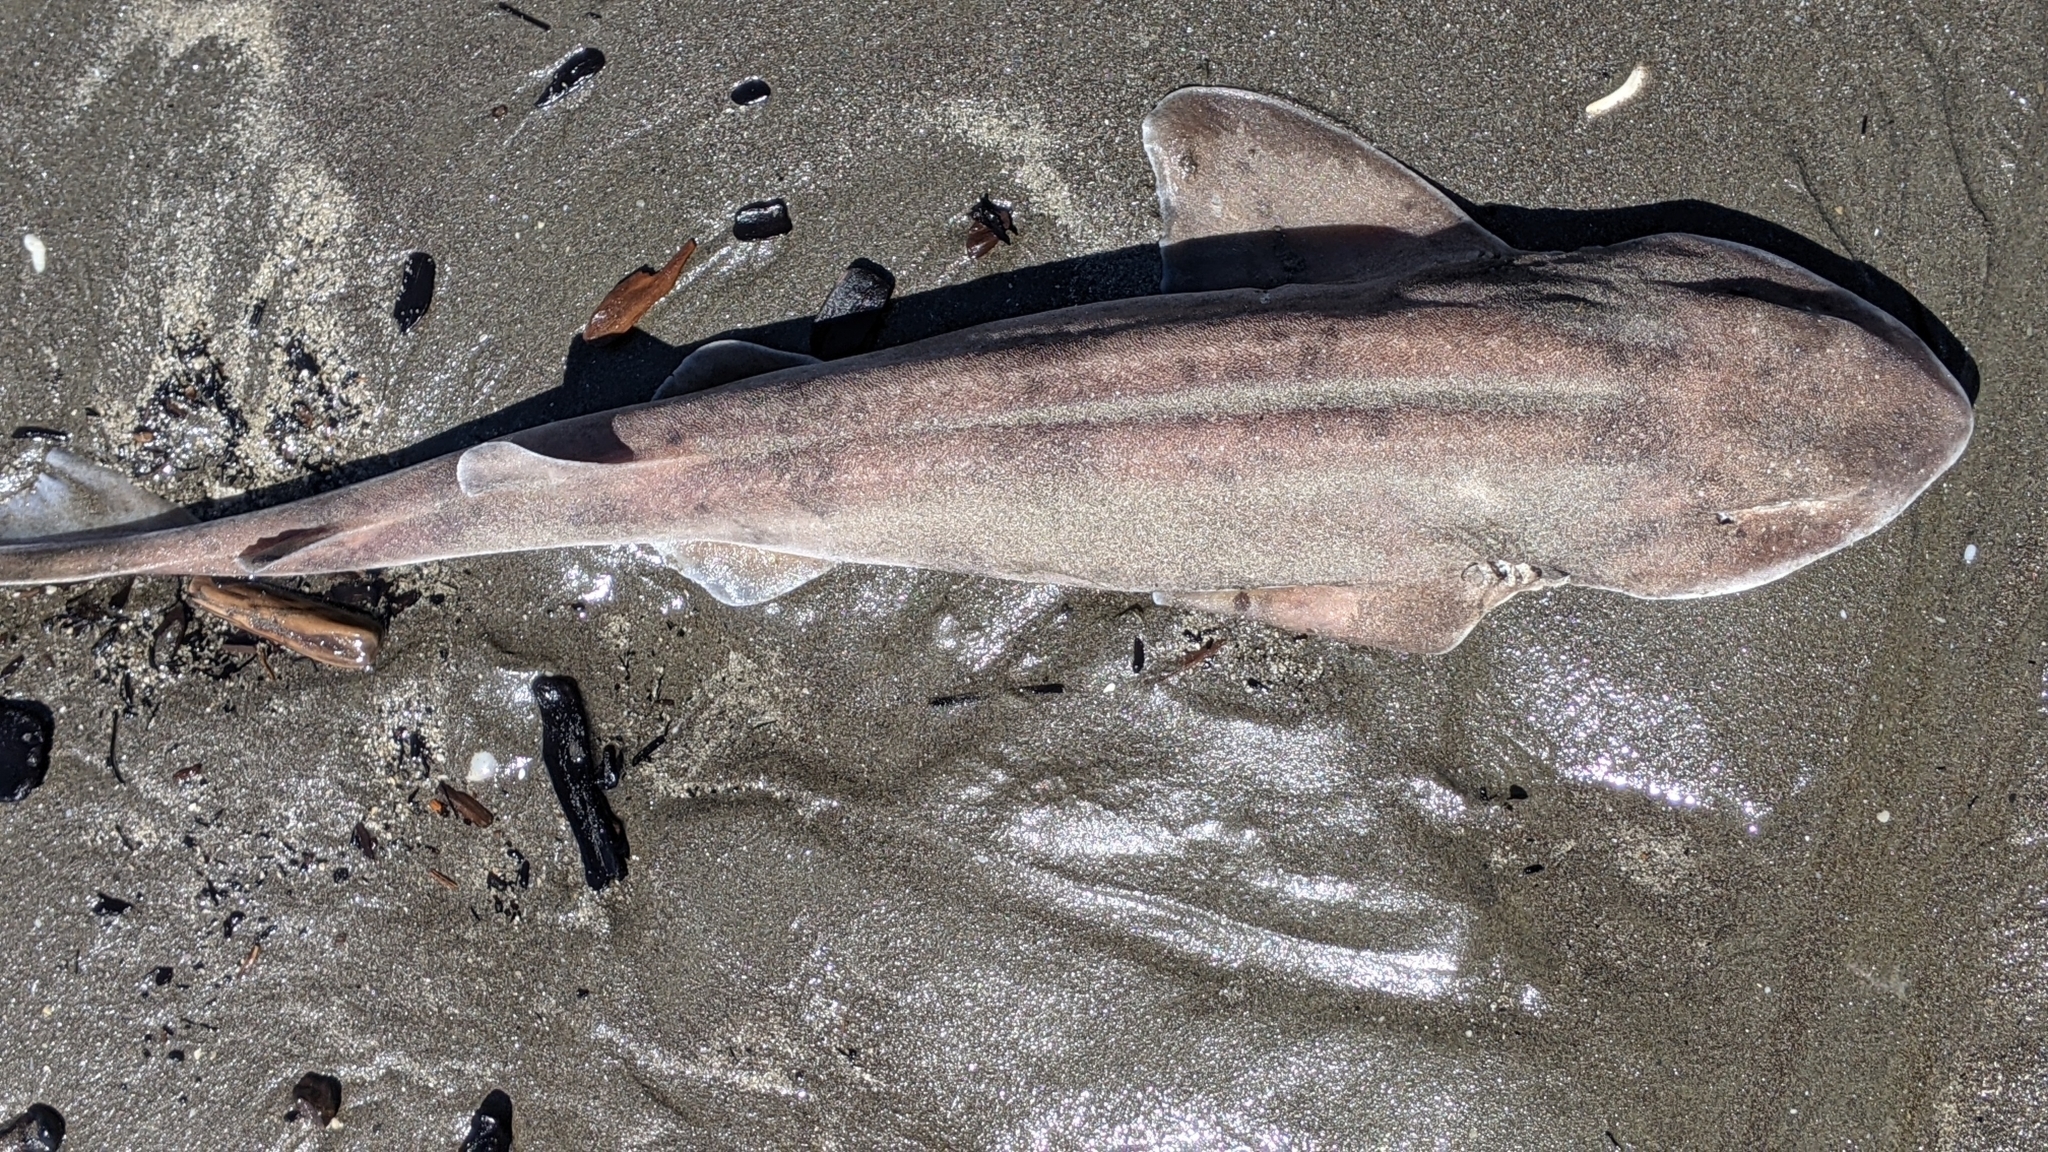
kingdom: Animalia
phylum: Chordata
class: Elasmobranchii
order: Carcharhiniformes
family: Scyliorhinidae
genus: Cephaloscyllium
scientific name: Cephaloscyllium isabellum
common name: Carpet shark
